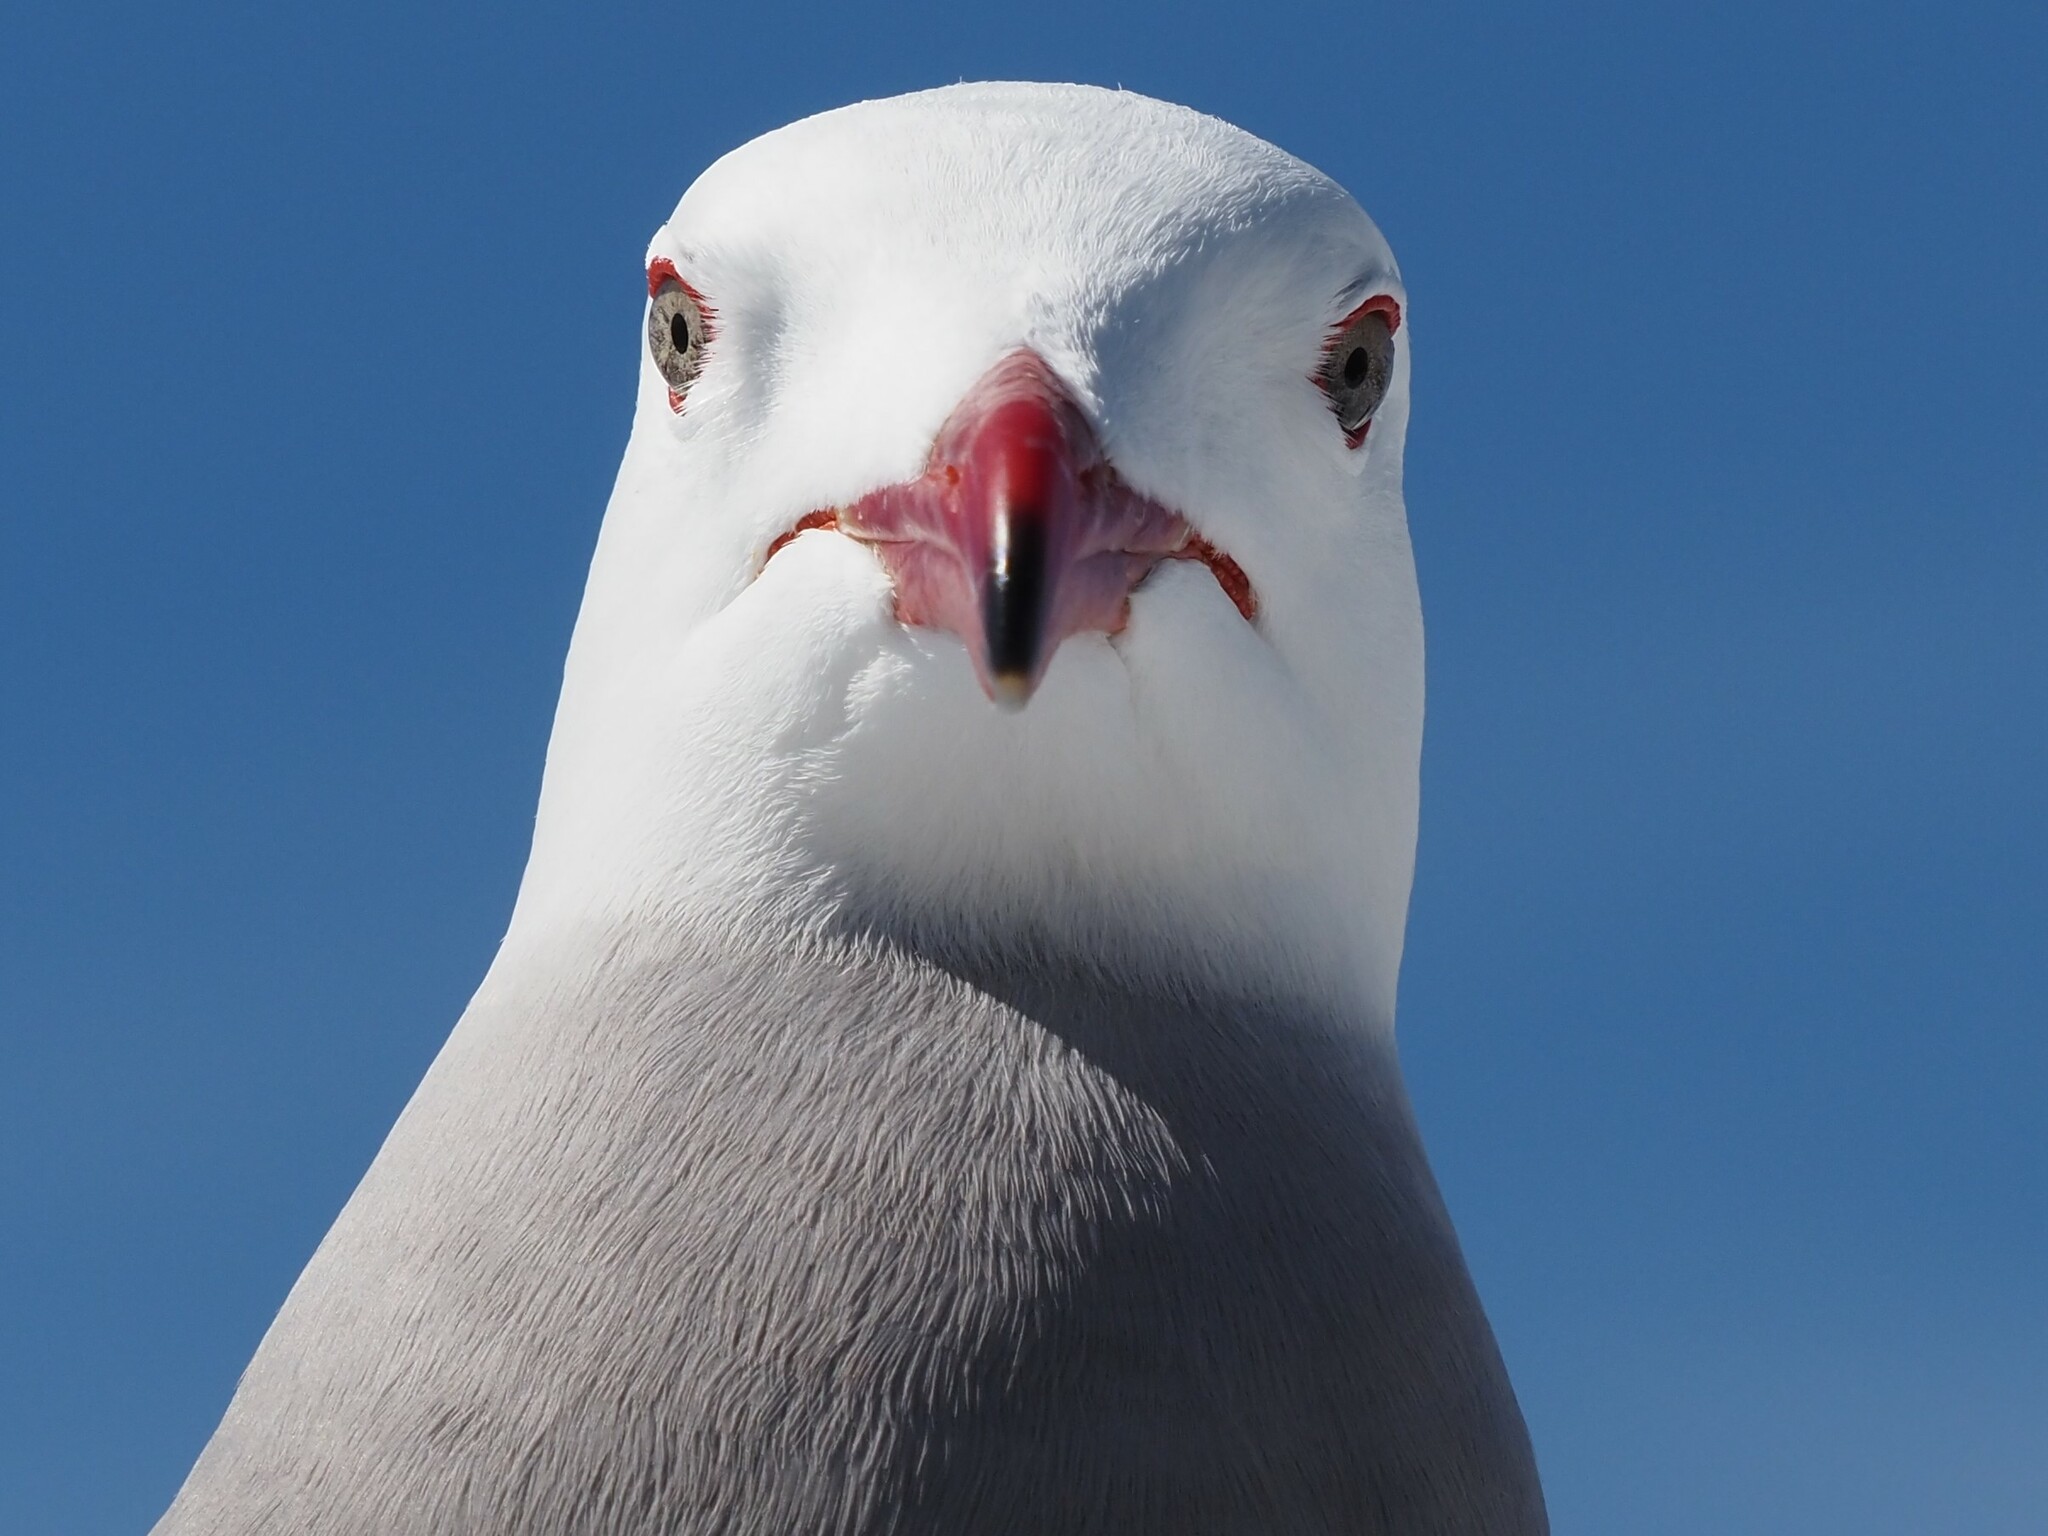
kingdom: Animalia
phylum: Chordata
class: Aves
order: Charadriiformes
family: Laridae
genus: Larus
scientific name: Larus heermanni
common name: Heermann's gull
